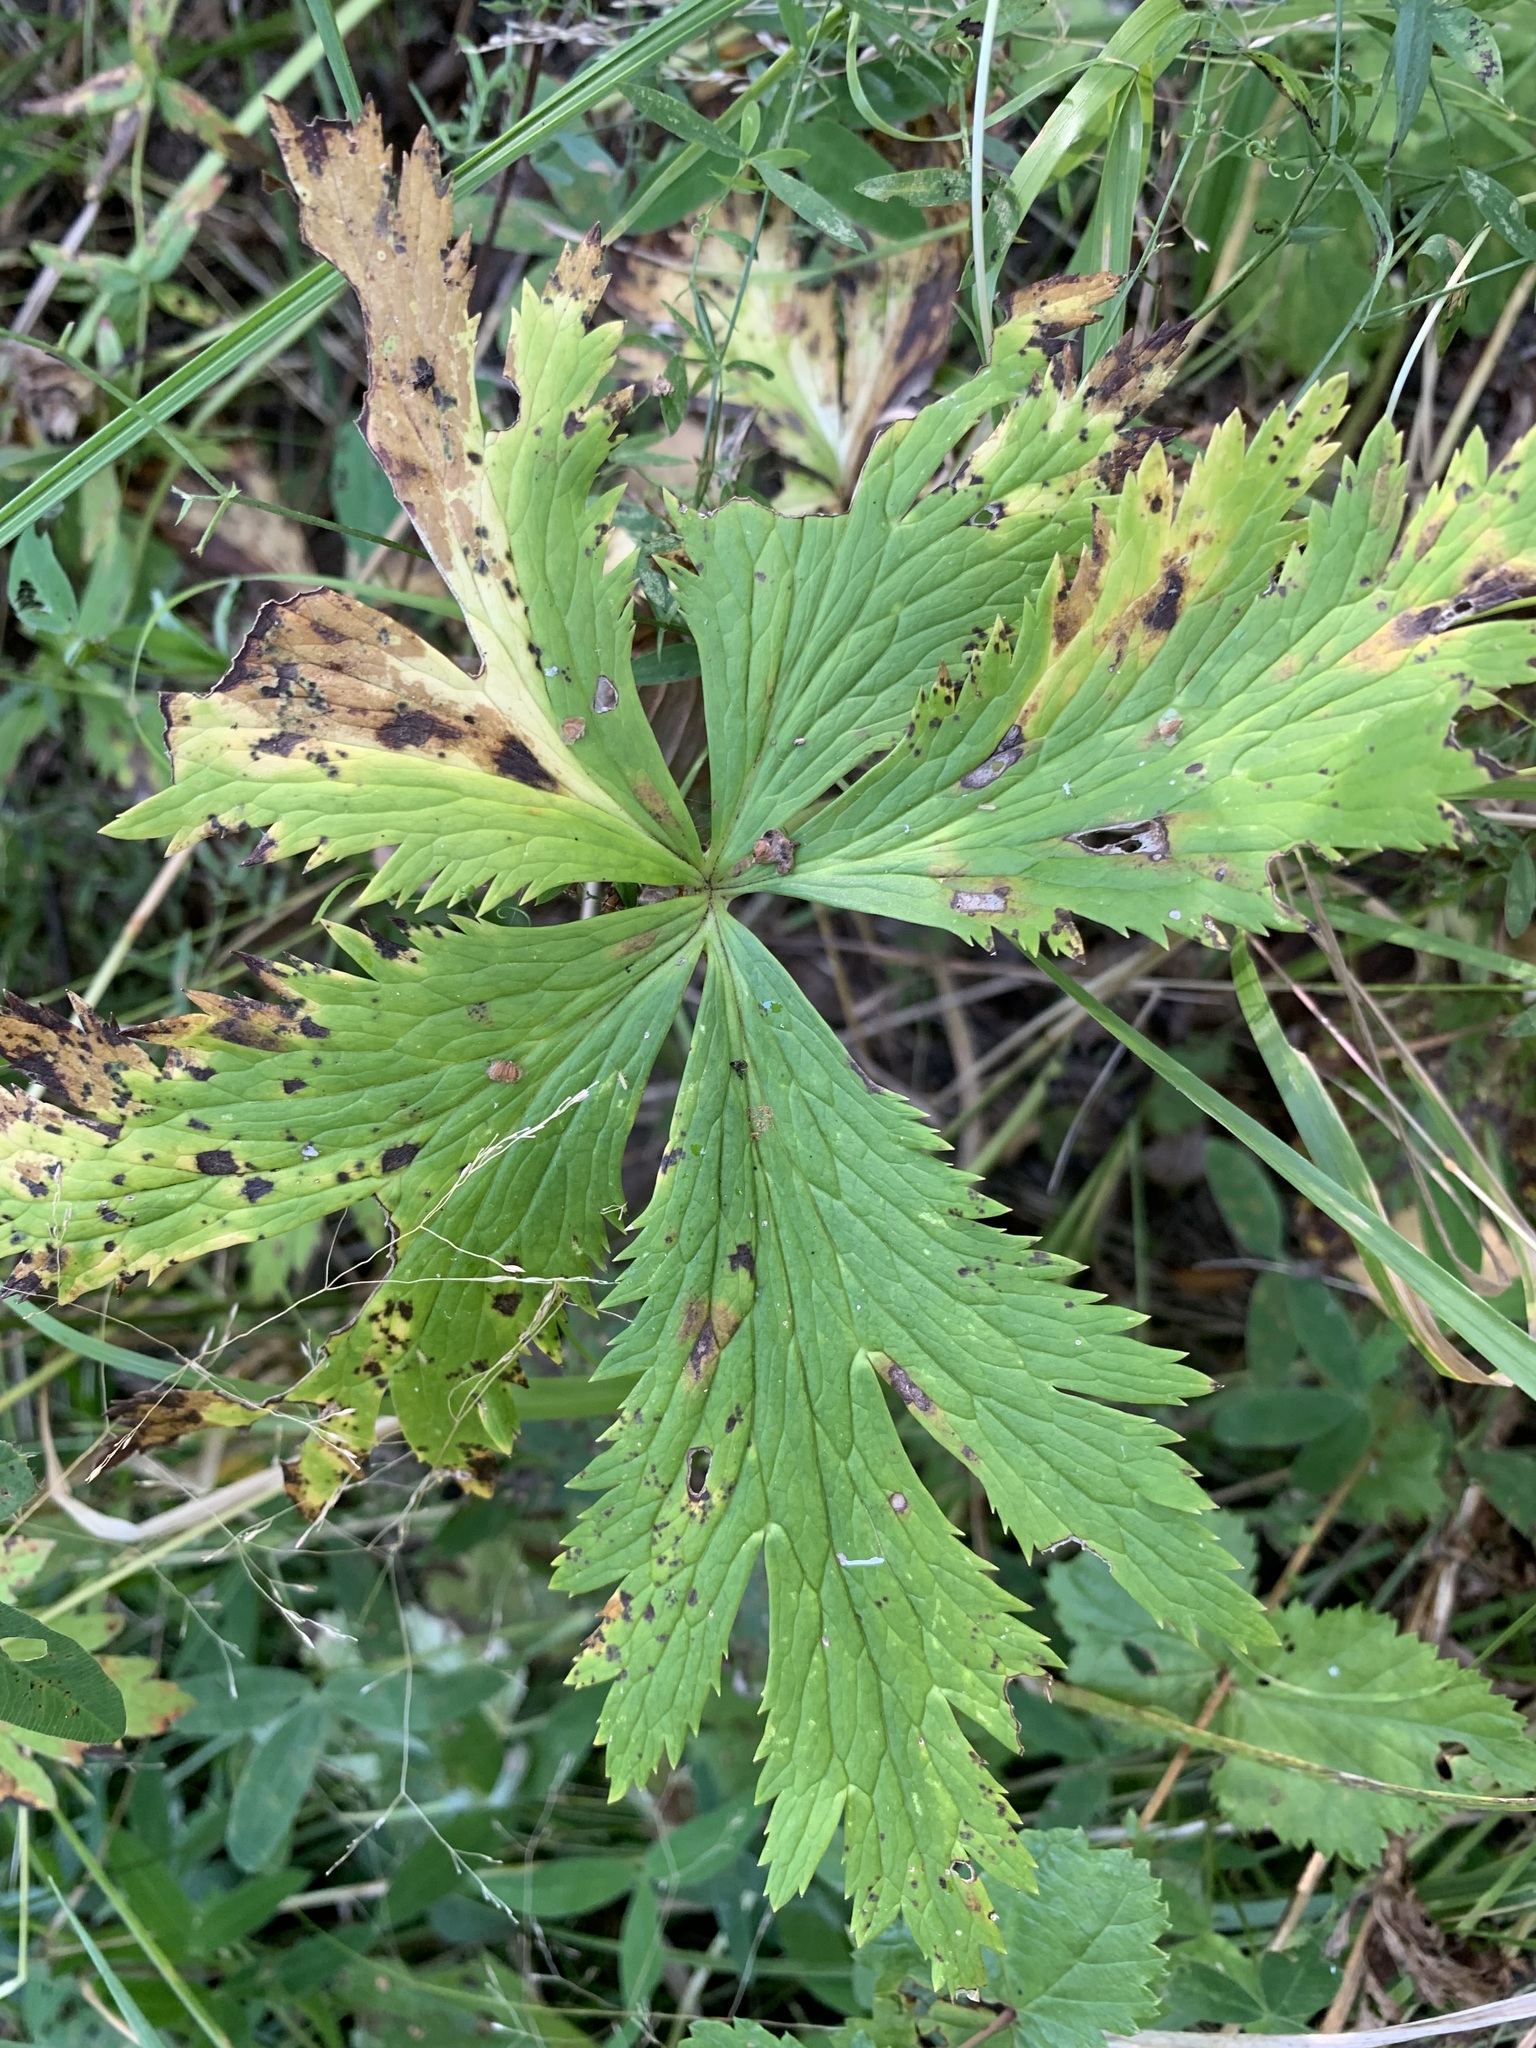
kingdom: Plantae
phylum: Tracheophyta
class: Magnoliopsida
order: Ranunculales
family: Ranunculaceae
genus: Trollius
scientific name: Trollius europaeus
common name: European globeflower
